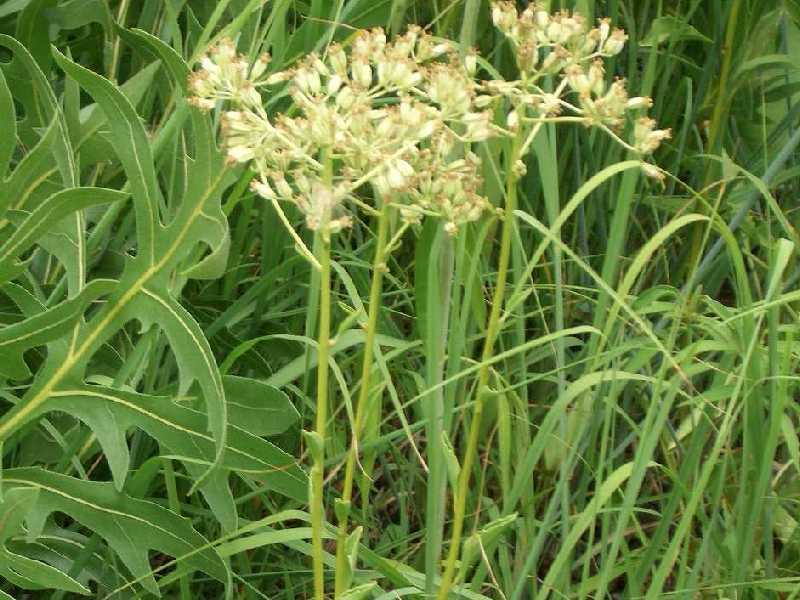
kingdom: Plantae
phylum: Tracheophyta
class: Magnoliopsida
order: Asterales
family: Asteraceae
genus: Arnoglossum
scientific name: Arnoglossum plantagineum
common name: Groove-stemmed indian-plantain
